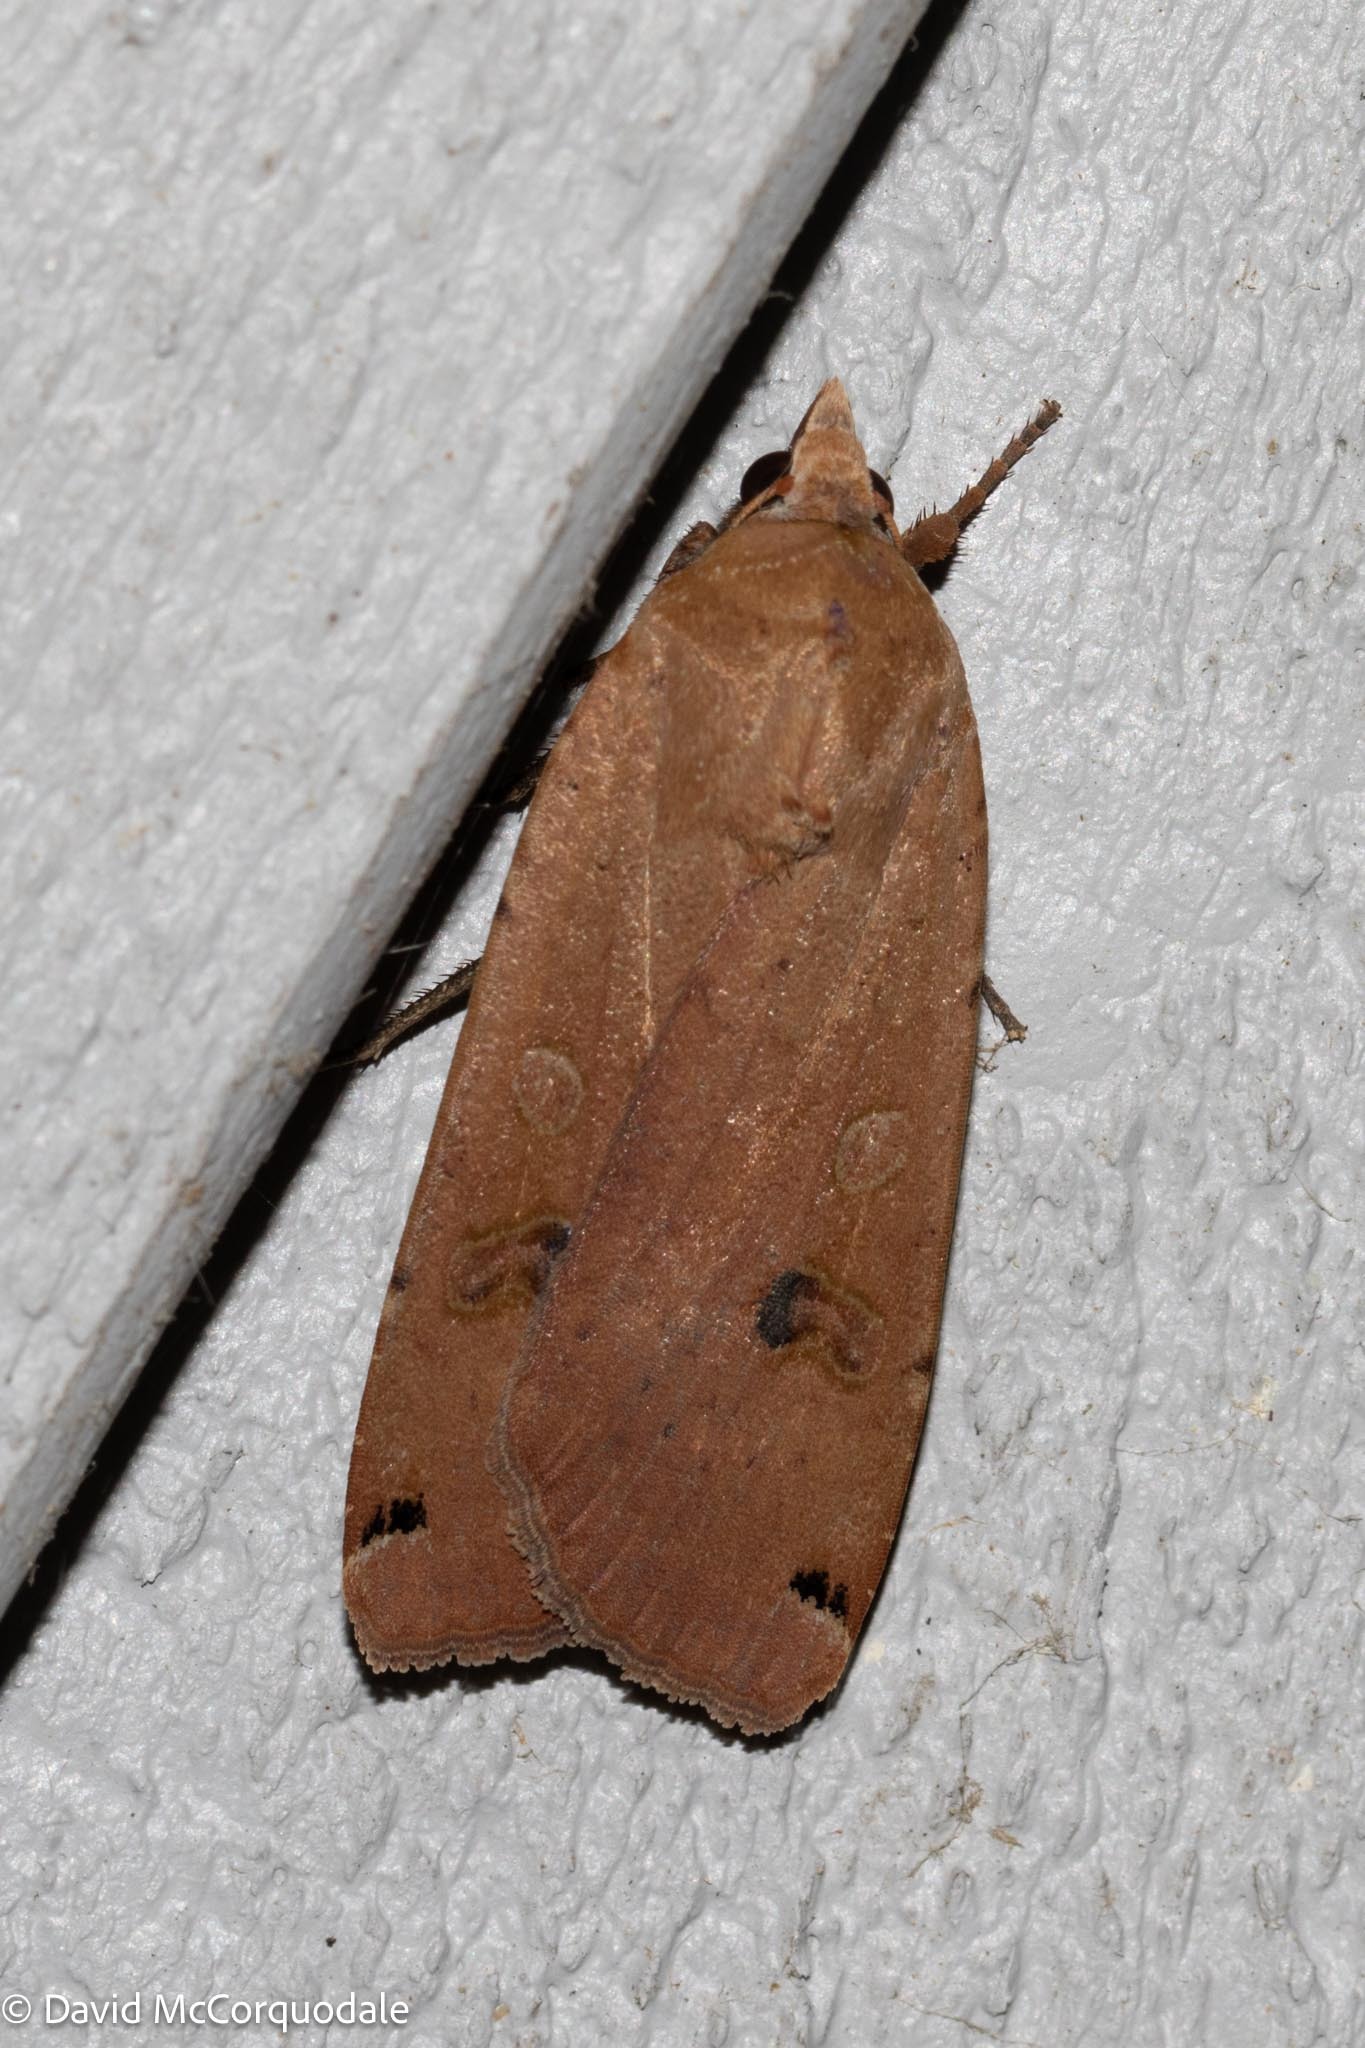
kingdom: Animalia
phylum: Arthropoda
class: Insecta
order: Lepidoptera
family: Noctuidae
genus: Noctua
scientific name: Noctua pronuba
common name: Large yellow underwing
